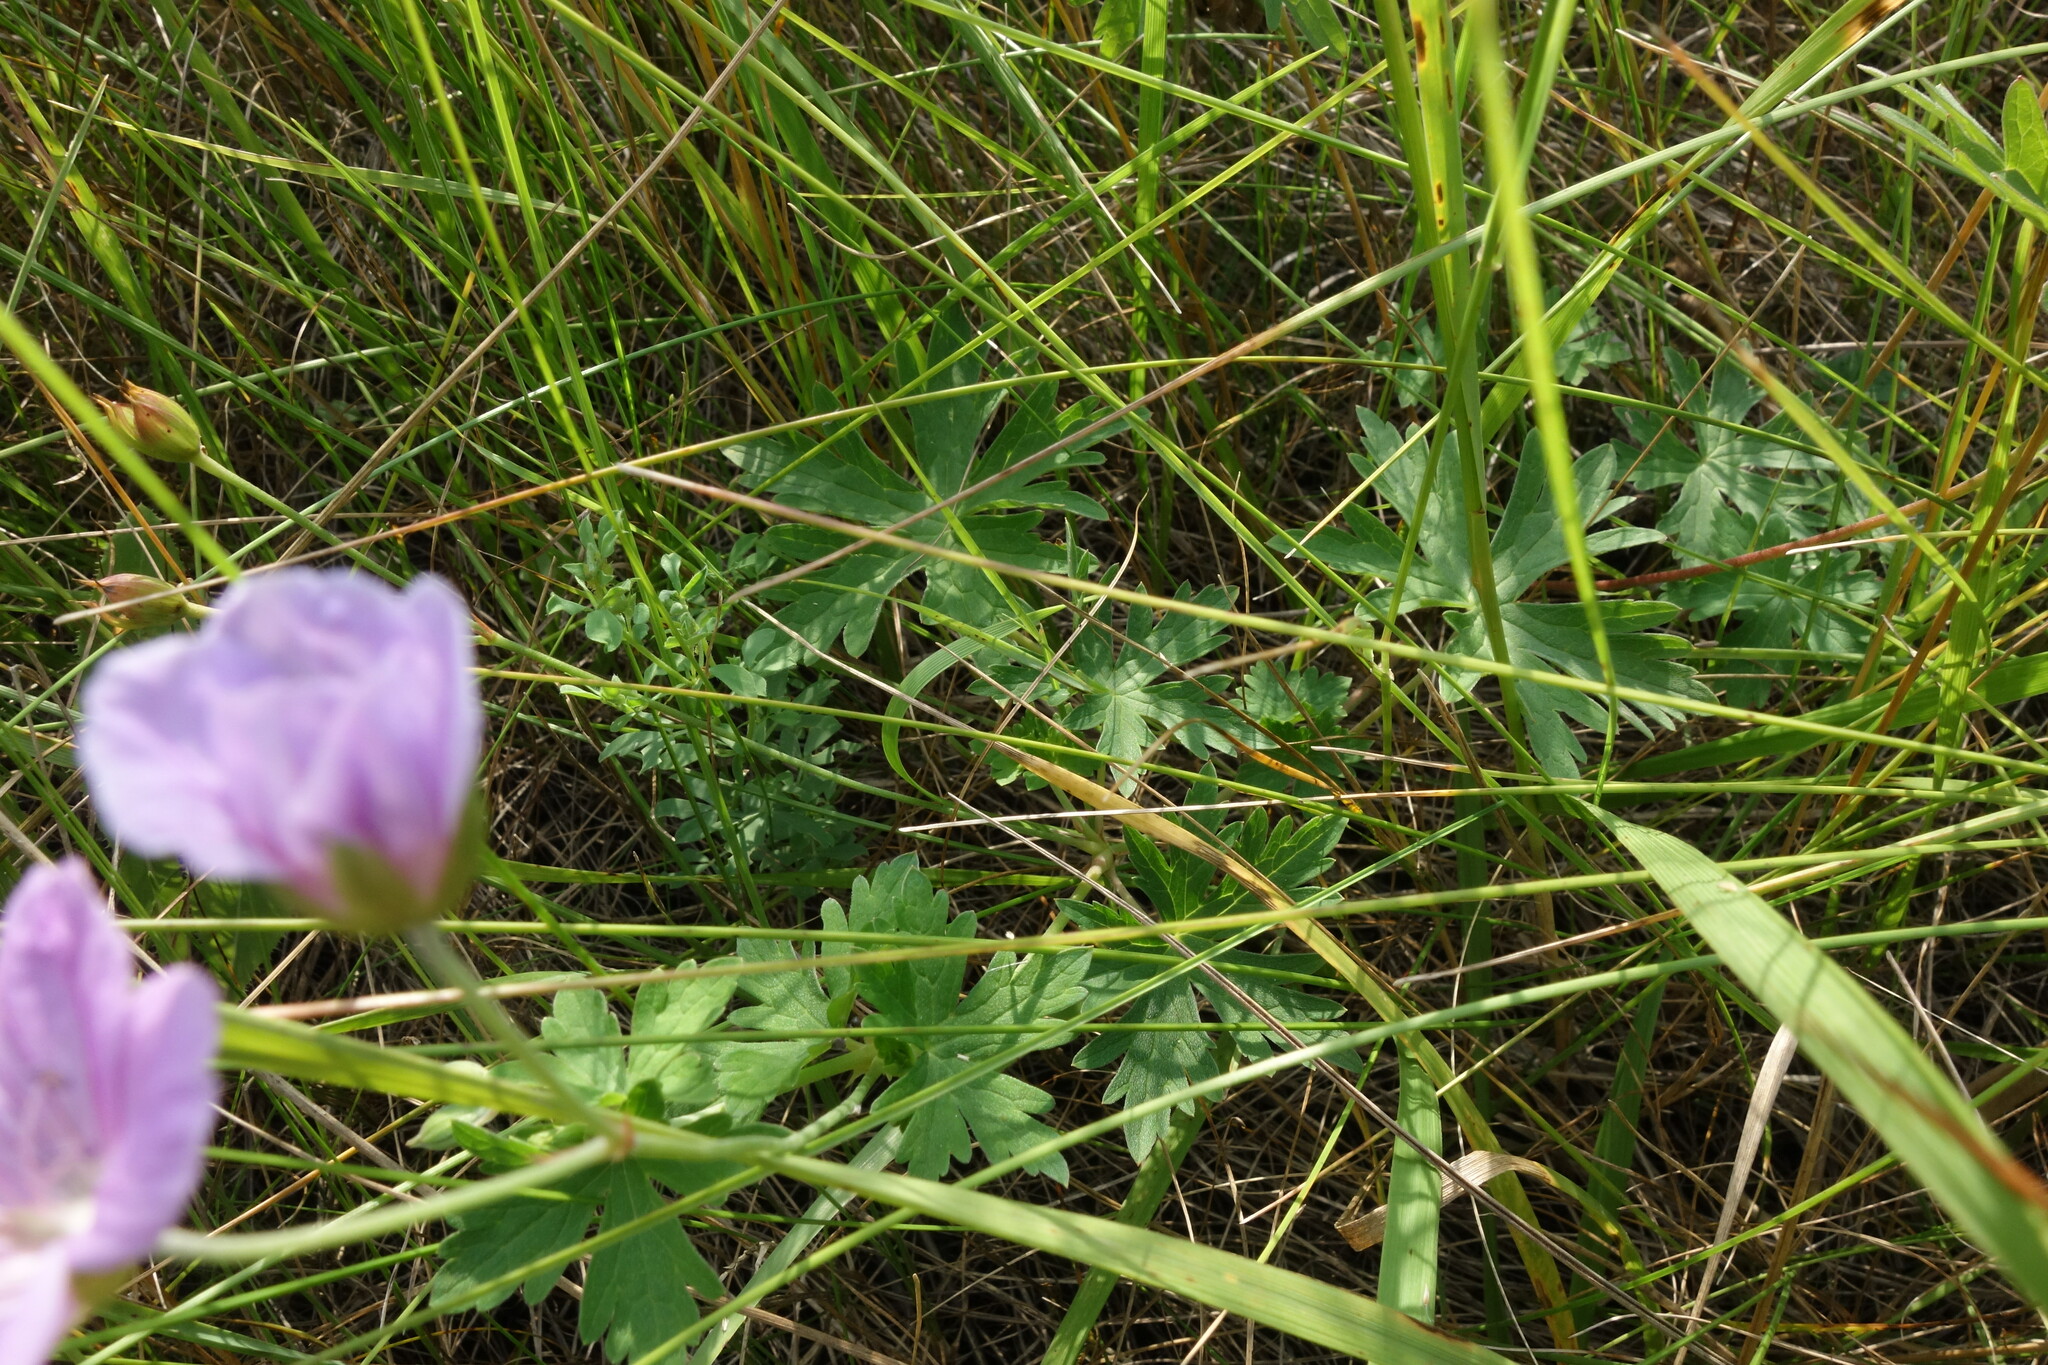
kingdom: Plantae
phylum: Tracheophyta
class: Magnoliopsida
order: Geraniales
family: Geraniaceae
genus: Geranium
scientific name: Geranium collinum
